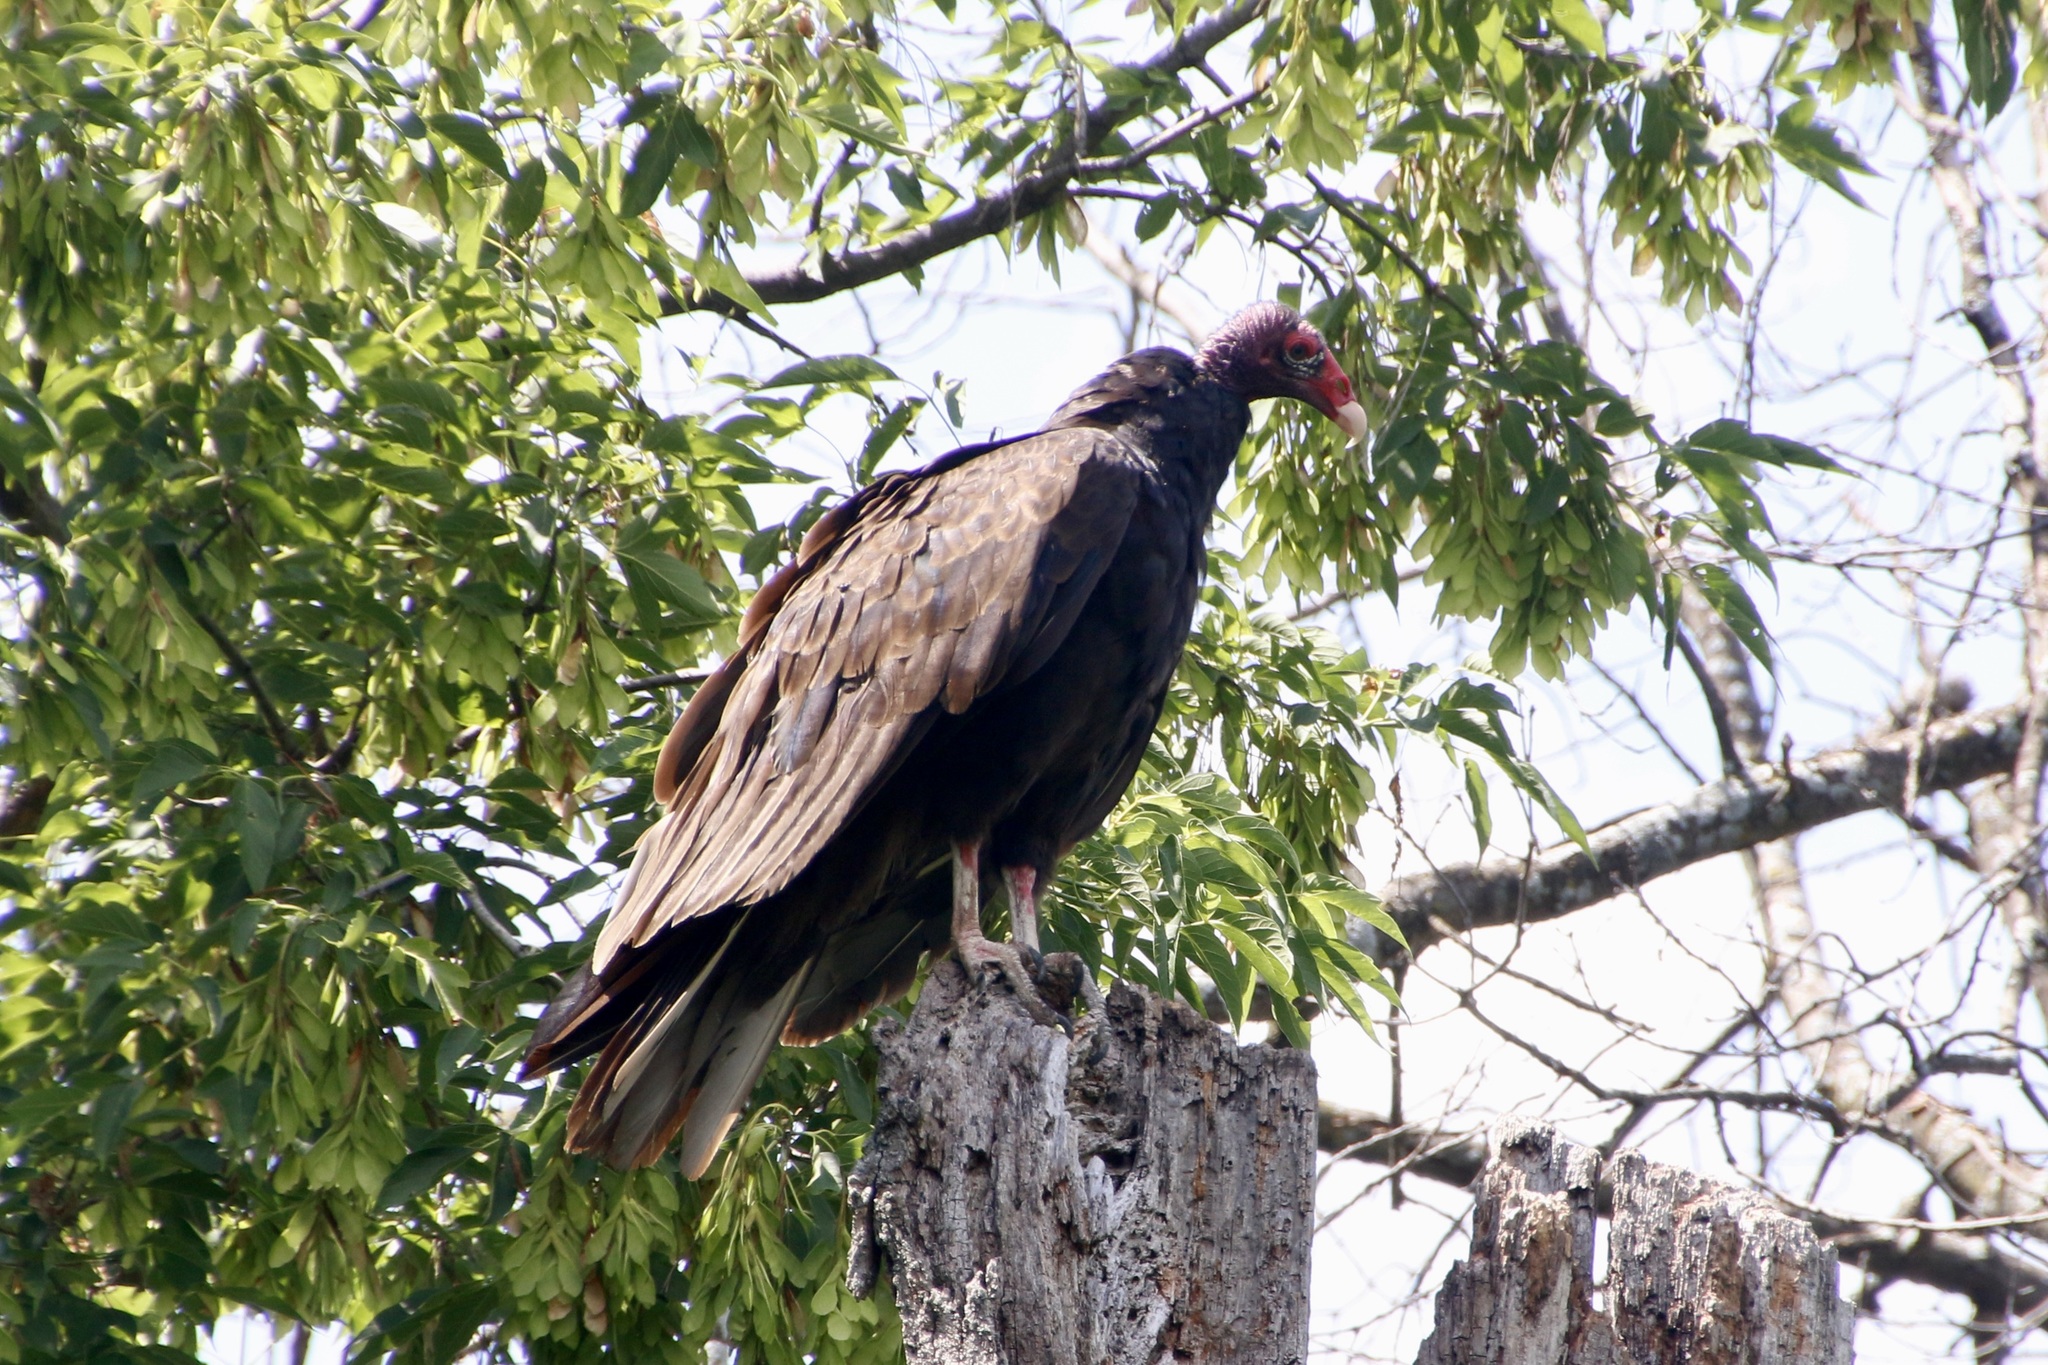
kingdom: Animalia
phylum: Chordata
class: Aves
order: Accipitriformes
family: Cathartidae
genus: Cathartes
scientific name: Cathartes aura
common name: Turkey vulture
